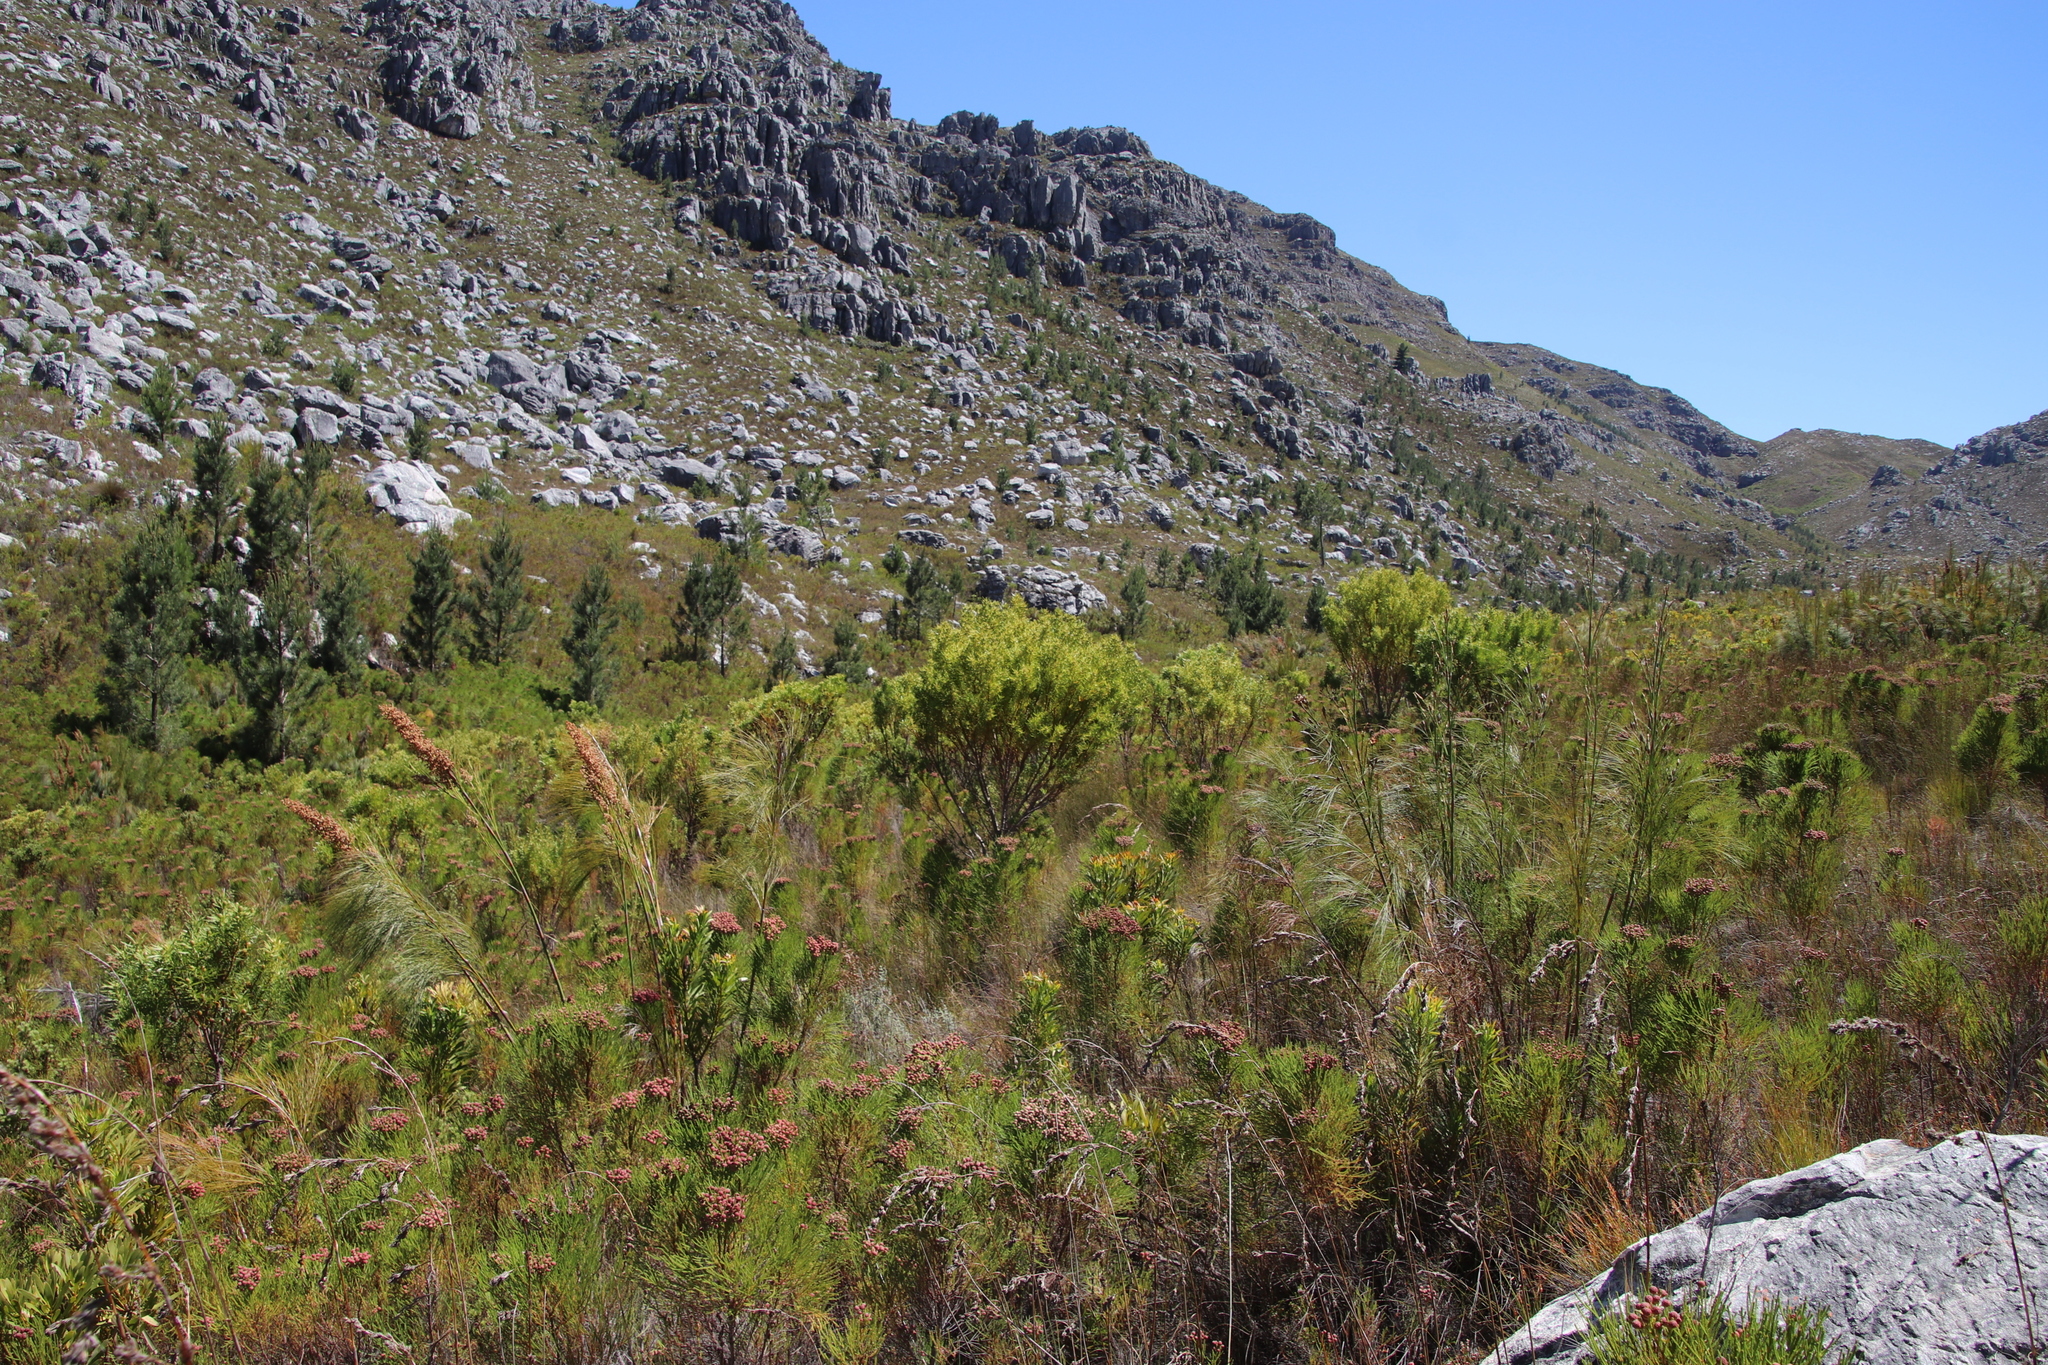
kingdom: Plantae
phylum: Tracheophyta
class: Magnoliopsida
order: Proteales
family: Proteaceae
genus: Leucadendron
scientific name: Leucadendron salicifolium
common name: Common stream conebush
